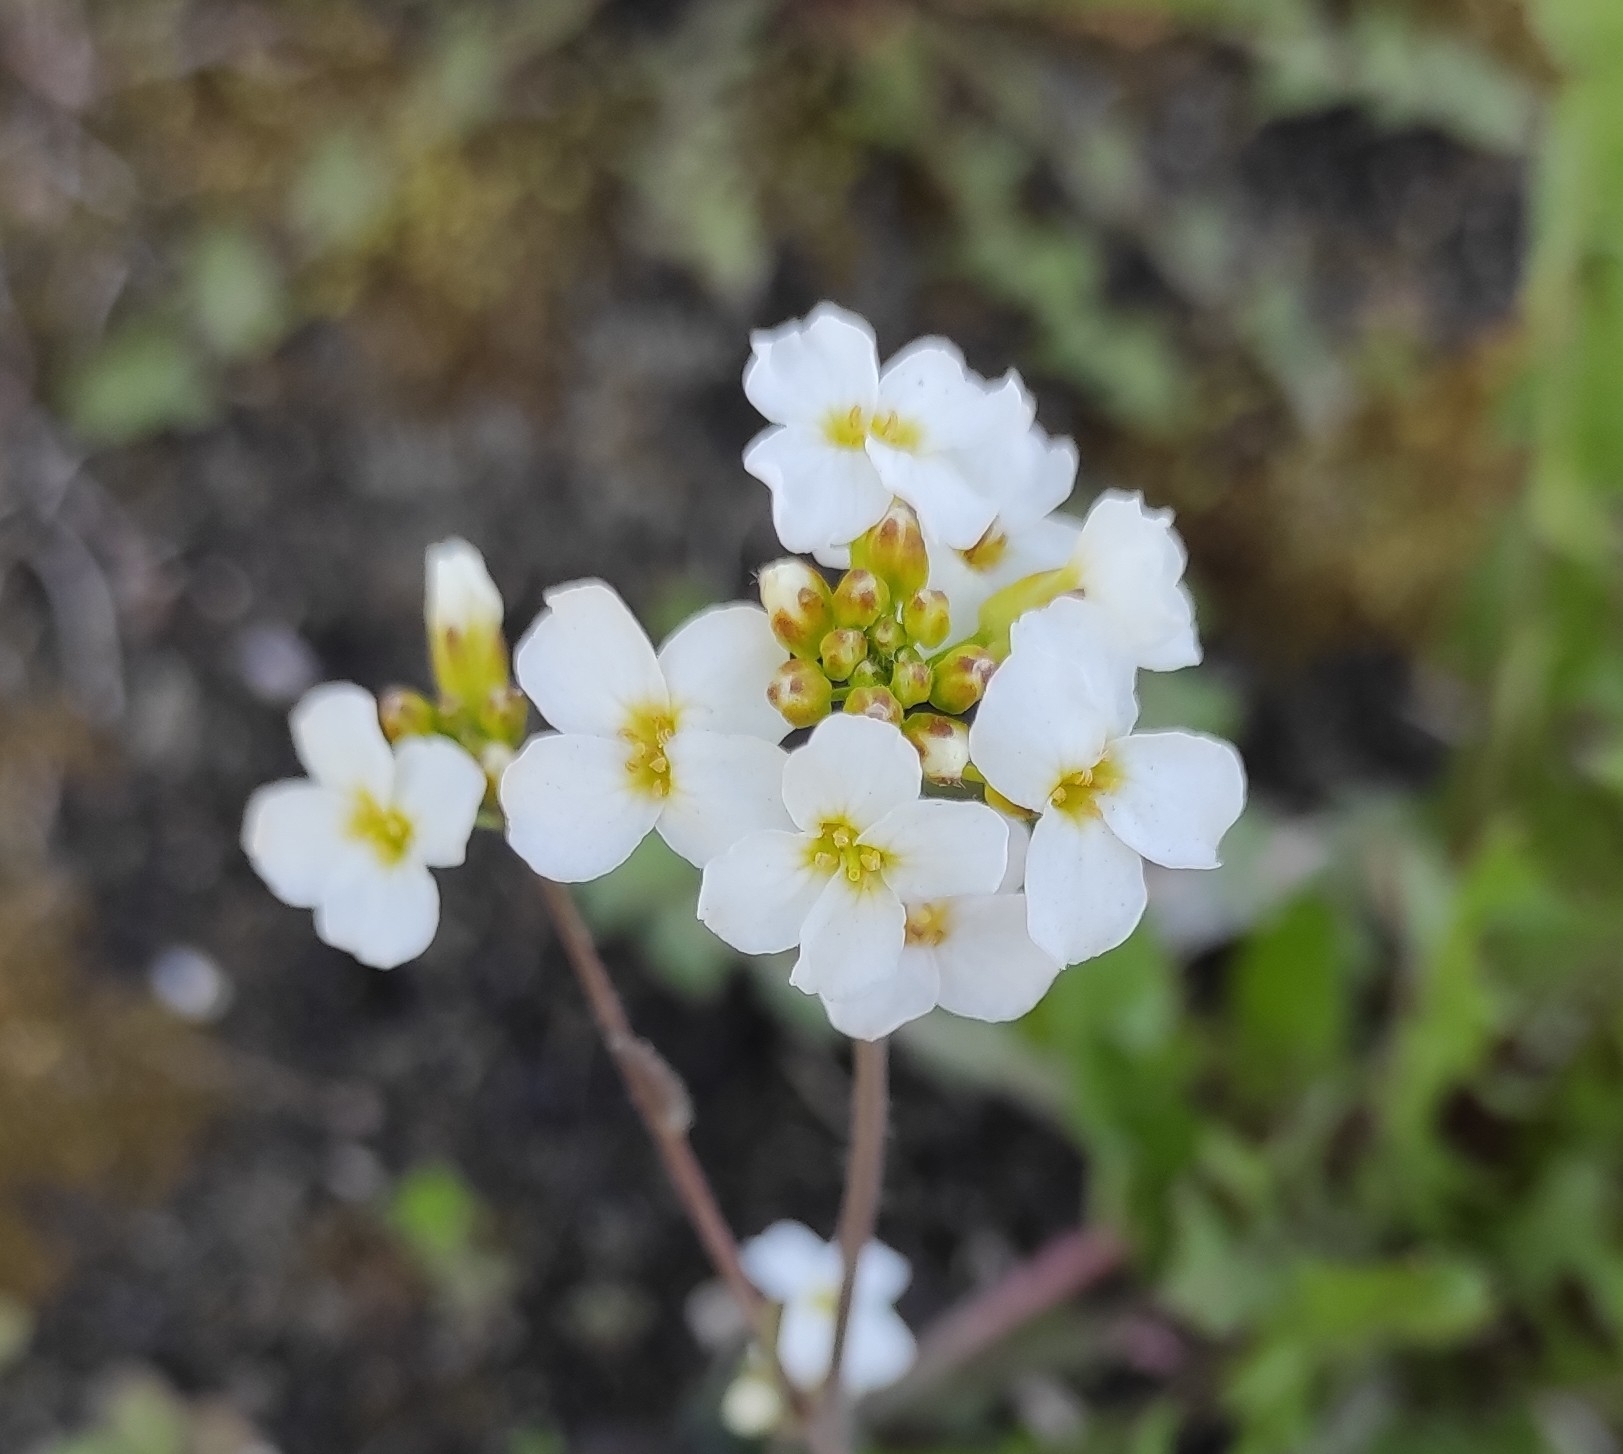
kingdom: Plantae
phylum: Tracheophyta
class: Magnoliopsida
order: Brassicales
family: Brassicaceae
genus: Arabidopsis
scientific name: Arabidopsis arenosa
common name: Sand rock-cress
